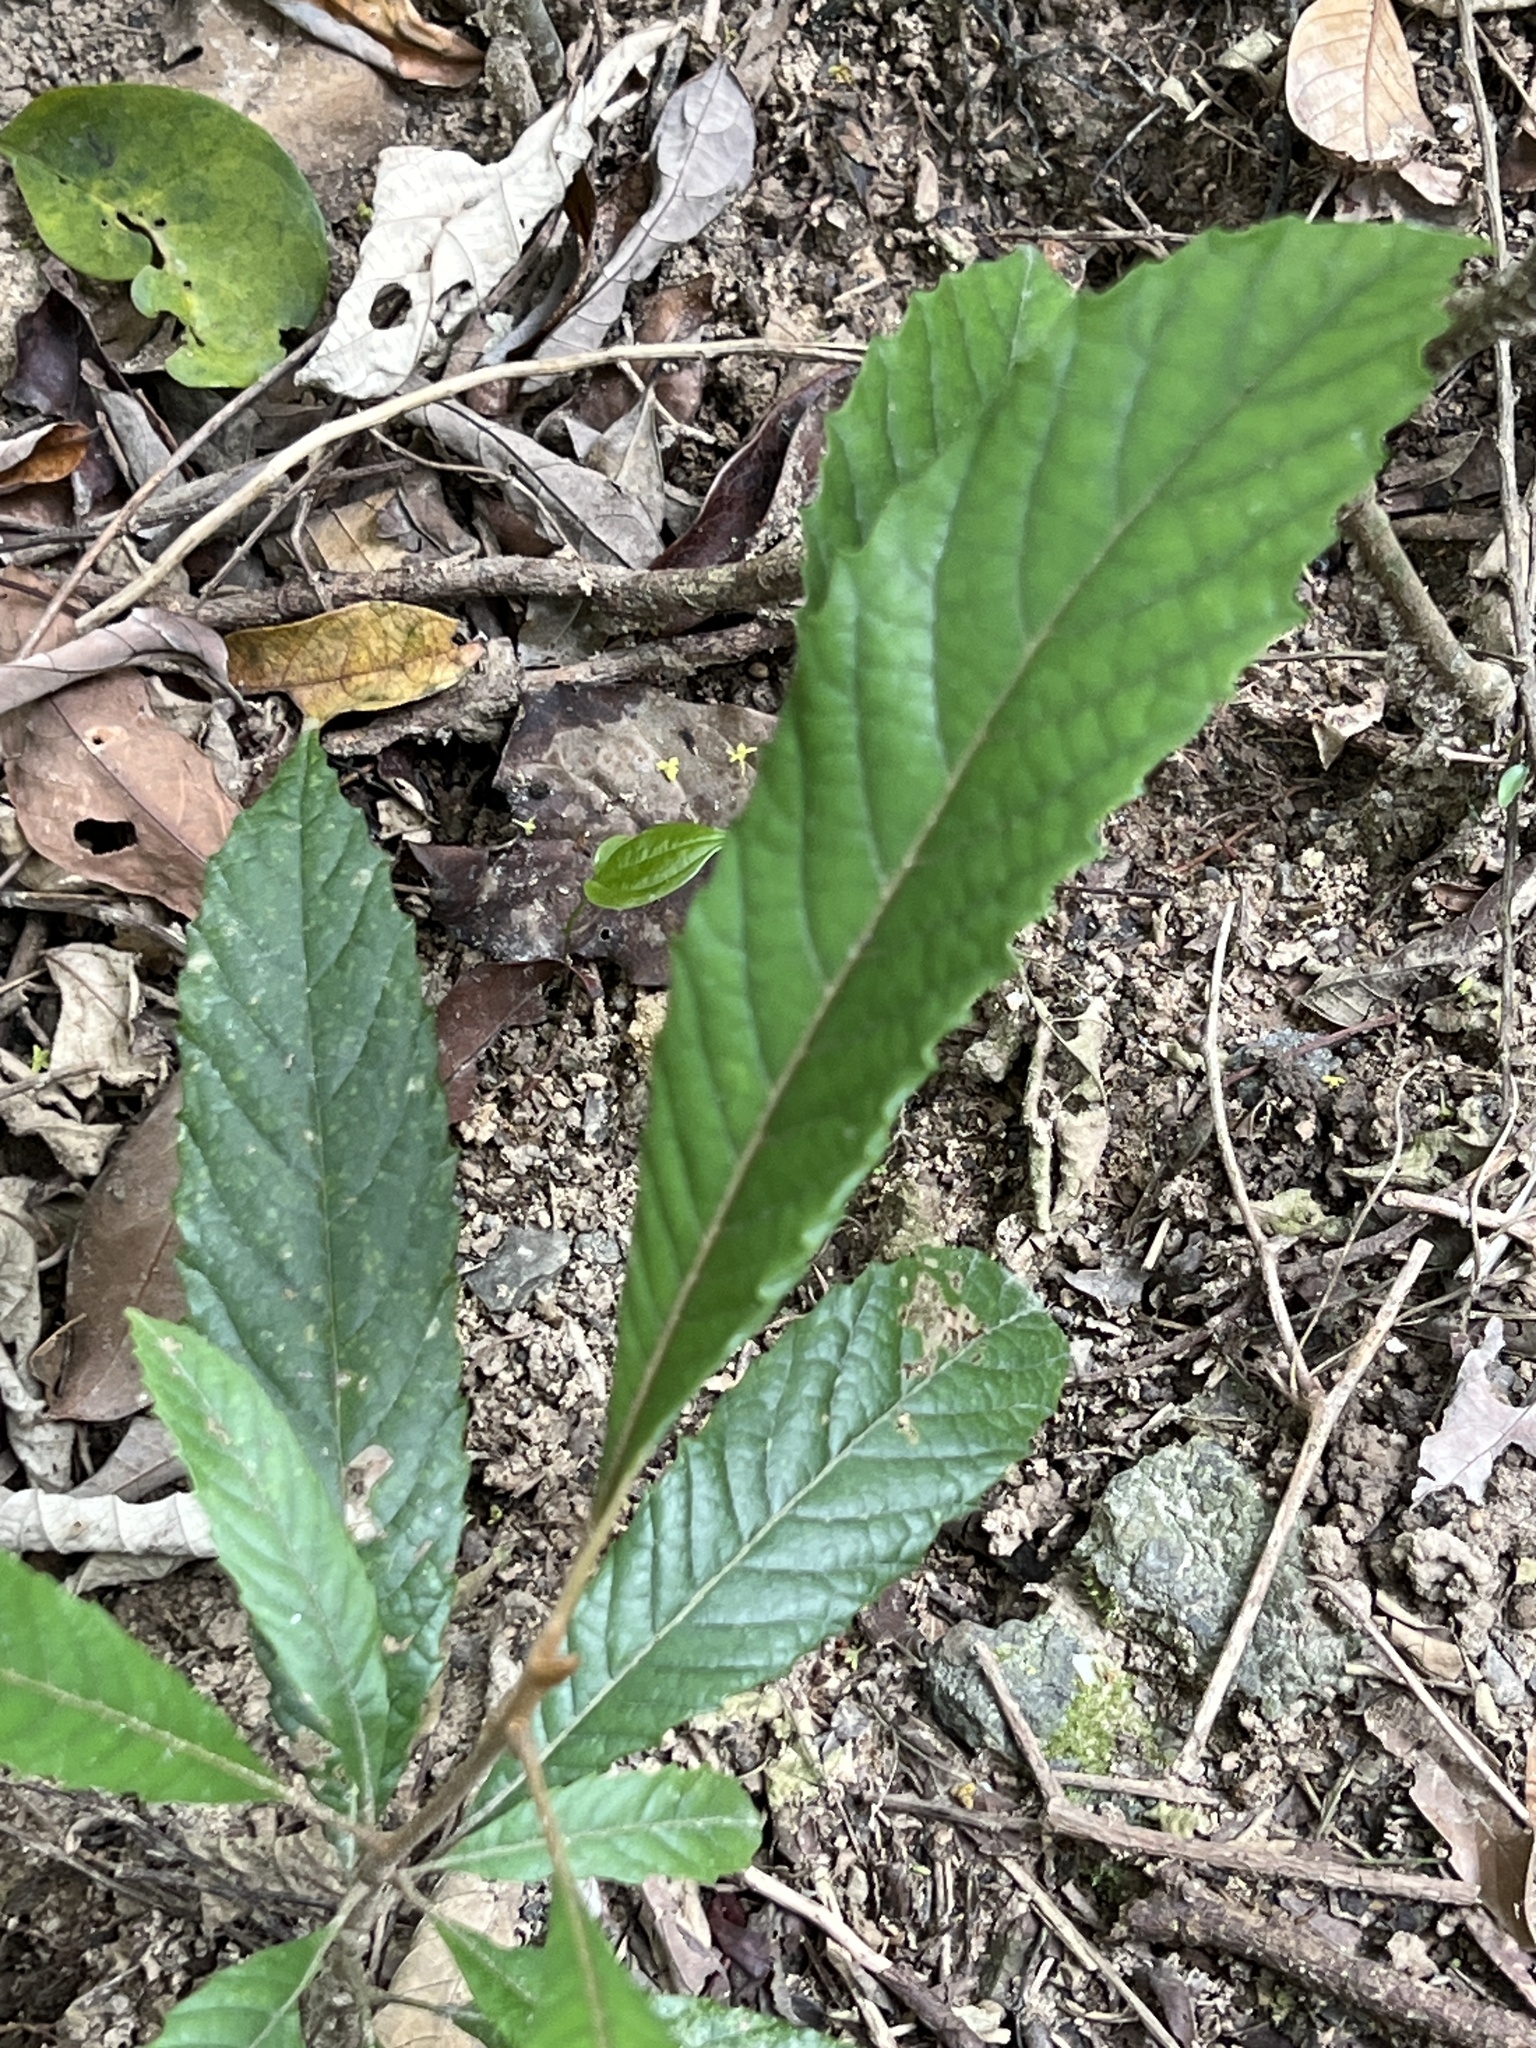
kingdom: Plantae
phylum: Tracheophyta
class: Magnoliopsida
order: Proteales
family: Sabiaceae
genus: Meliosma
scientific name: Meliosma rigida
